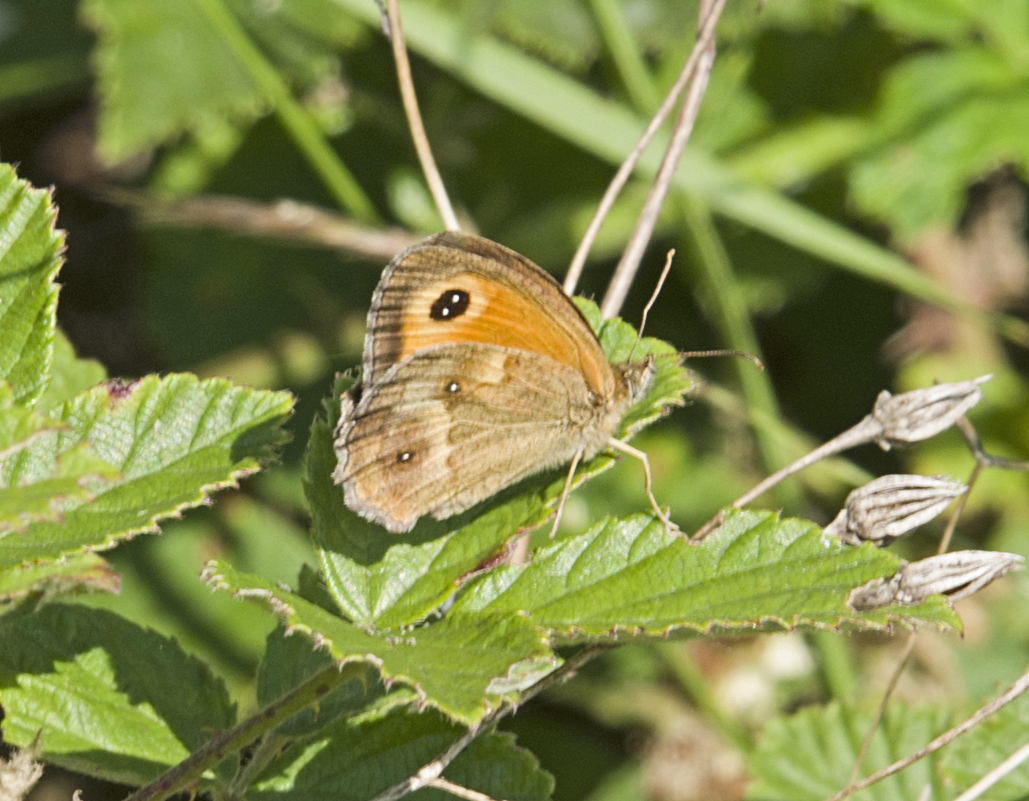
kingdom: Animalia
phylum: Arthropoda
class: Insecta
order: Lepidoptera
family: Nymphalidae
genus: Pyronia
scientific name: Pyronia tithonus
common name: Gatekeeper
